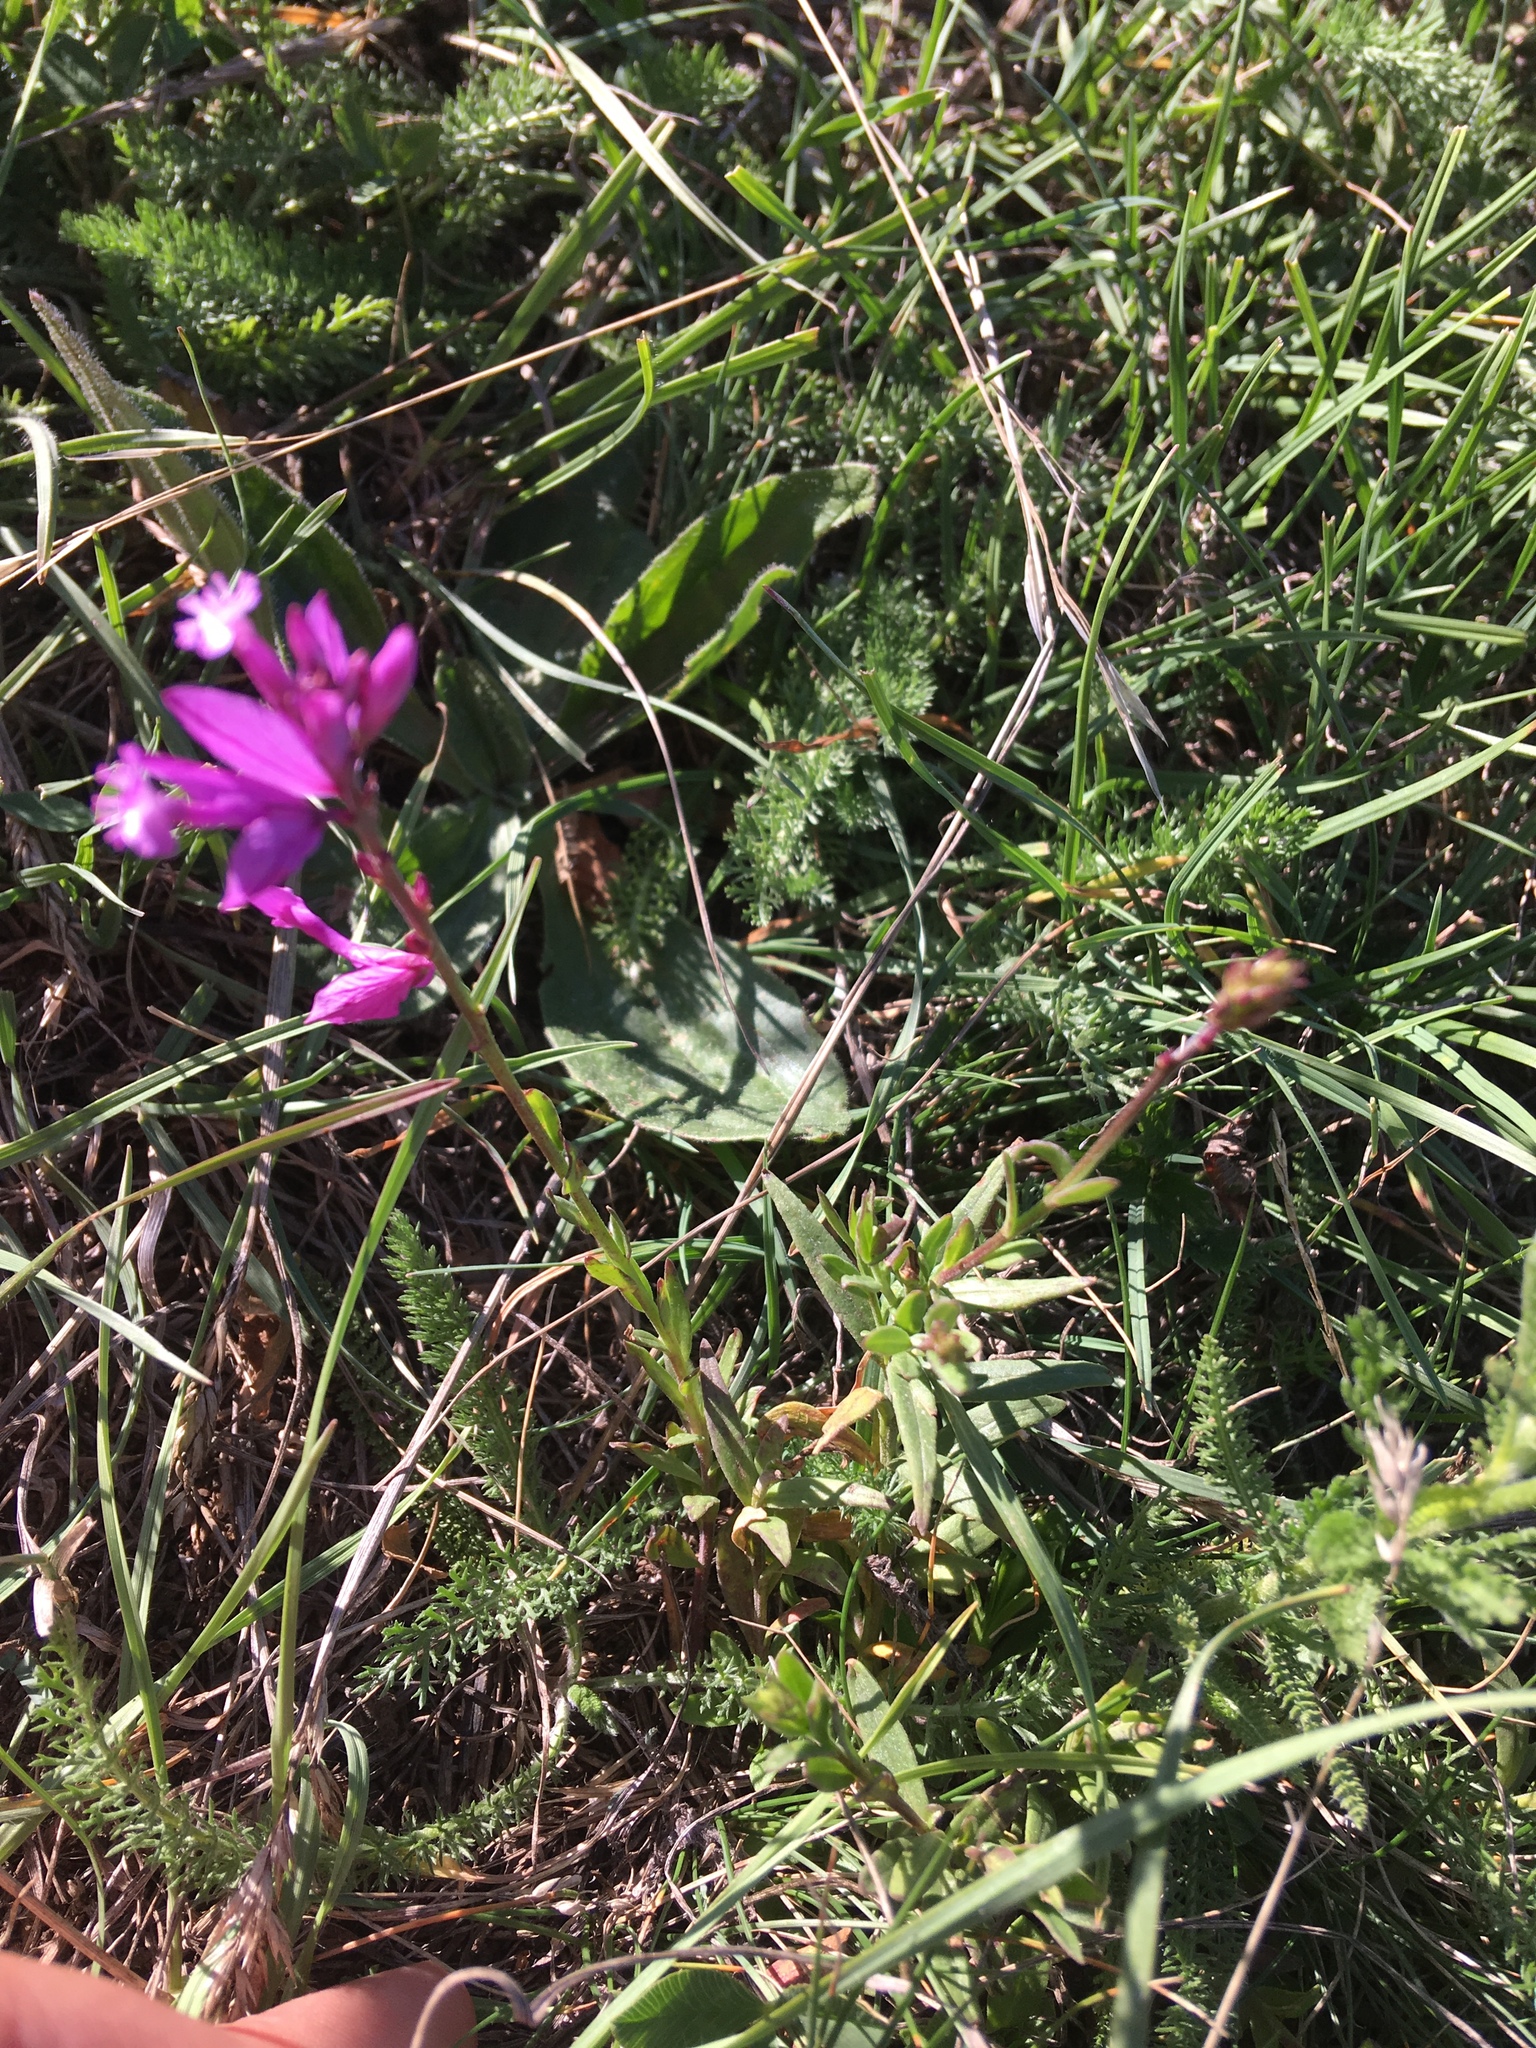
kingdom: Plantae
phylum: Tracheophyta
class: Magnoliopsida
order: Fabales
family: Polygalaceae
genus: Polygala
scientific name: Polygala major
